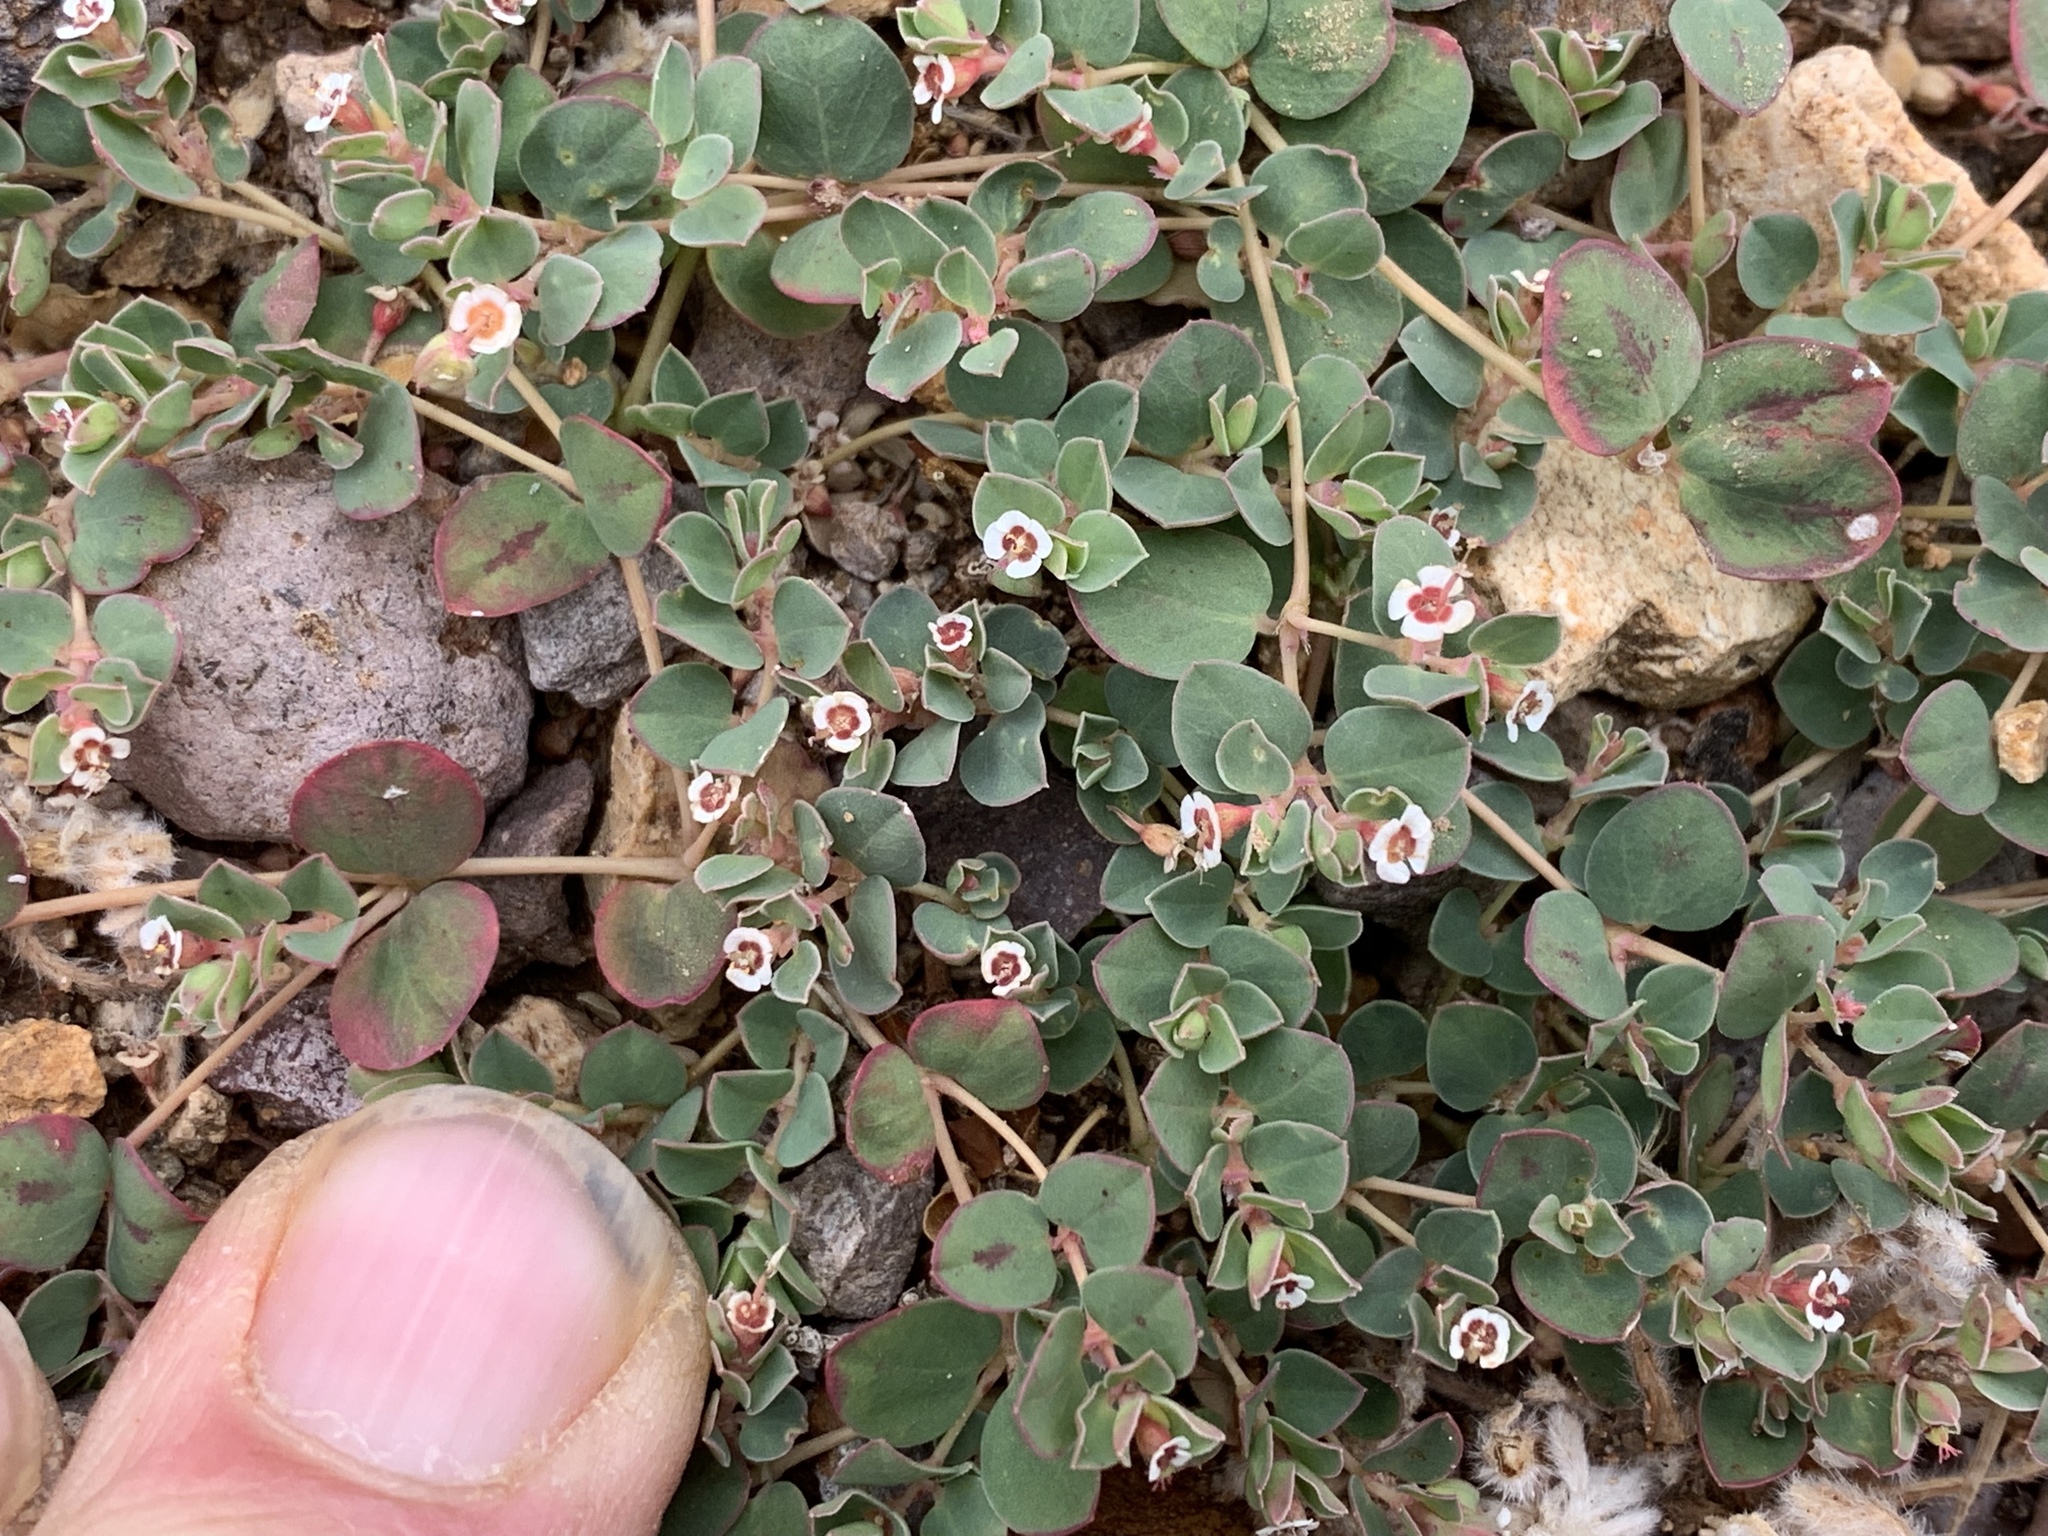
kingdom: Plantae
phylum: Tracheophyta
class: Magnoliopsida
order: Malpighiales
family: Euphorbiaceae
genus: Euphorbia
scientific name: Euphorbia albomarginata
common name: Whitemargin sandmat
